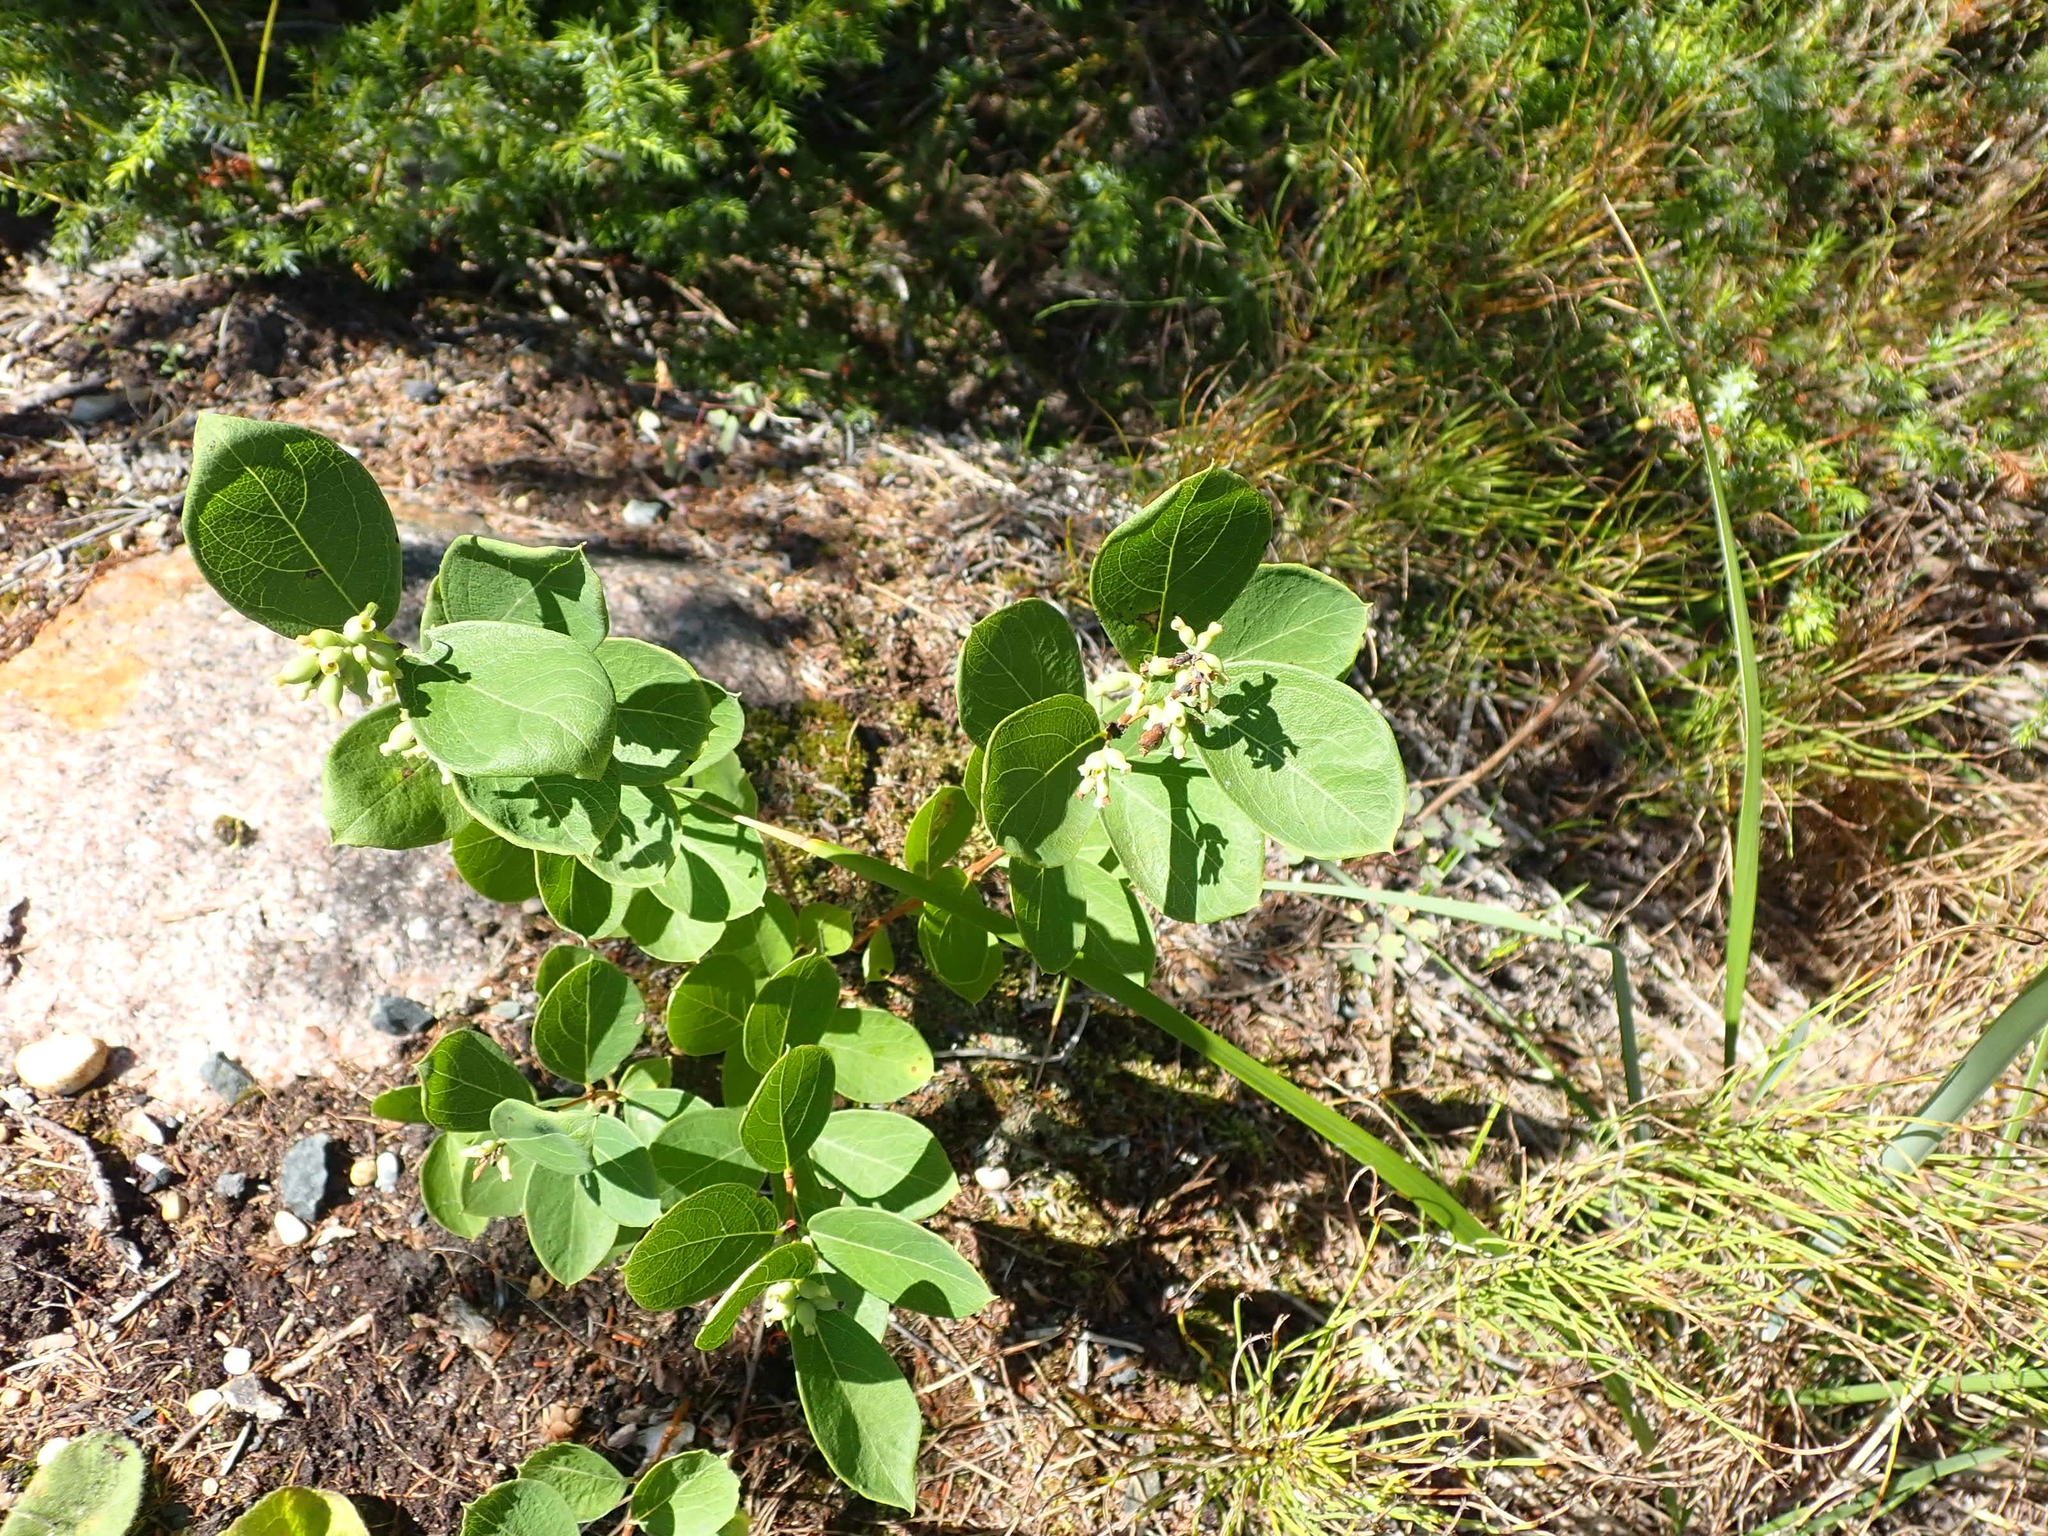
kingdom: Plantae
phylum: Tracheophyta
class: Magnoliopsida
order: Dipsacales
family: Caprifoliaceae
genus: Symphoricarpos
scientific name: Symphoricarpos occidentalis
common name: Wolfberry
